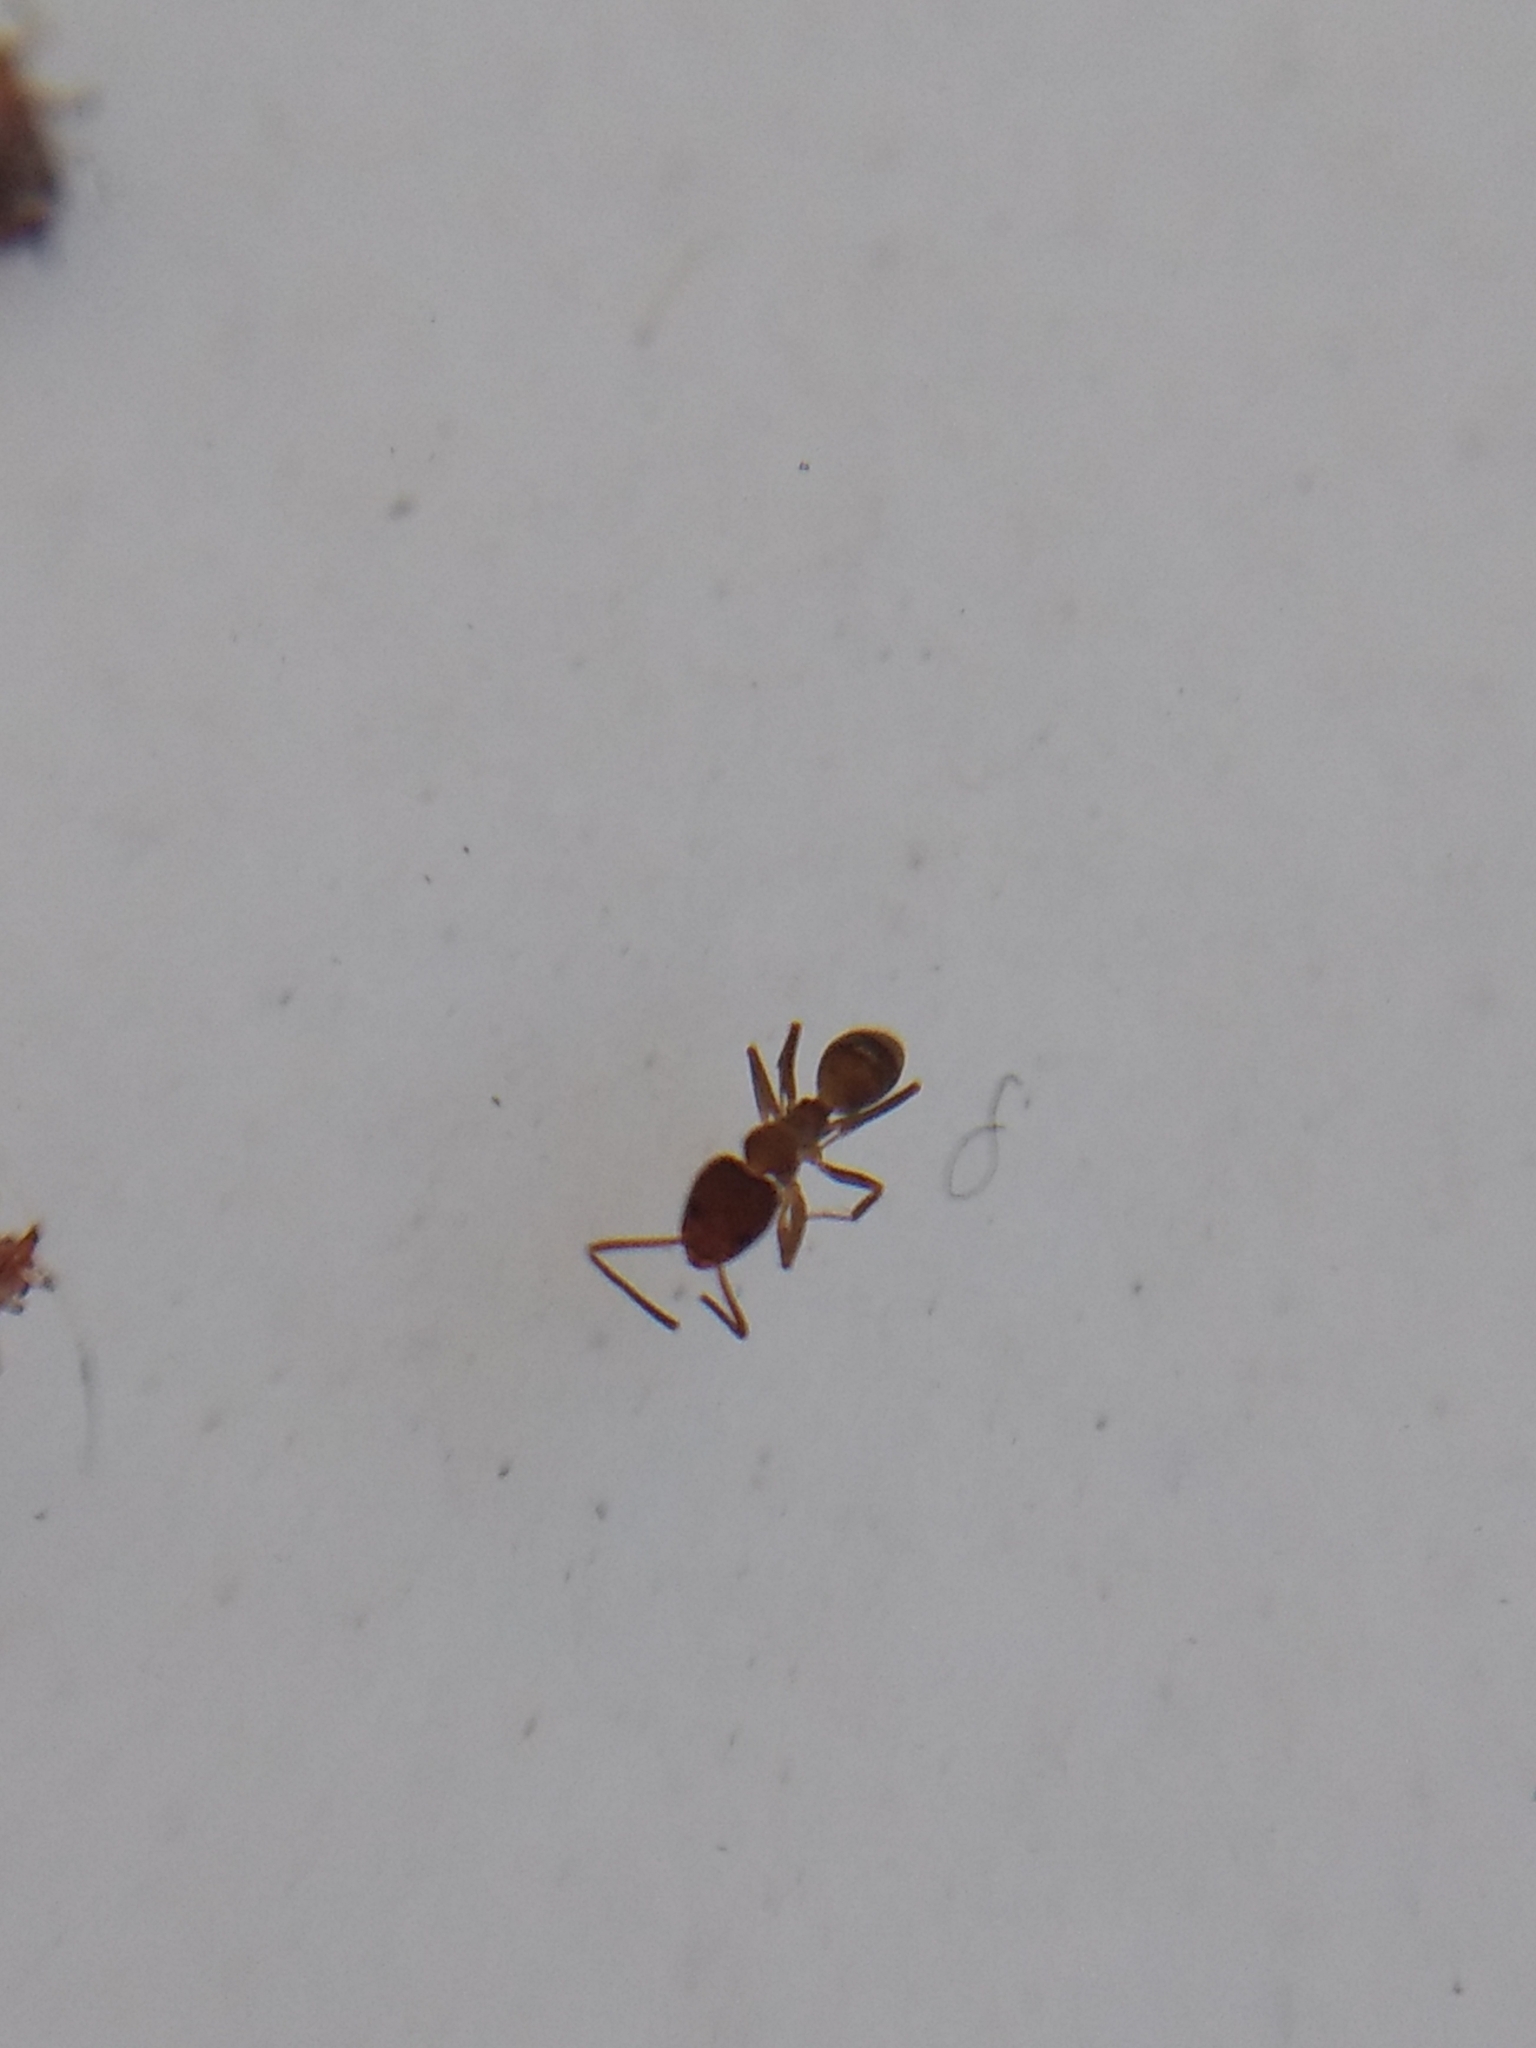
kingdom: Animalia
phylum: Arthropoda
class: Insecta
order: Hymenoptera
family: Formicidae
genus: Linepithema
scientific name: Linepithema humile
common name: Argentine ant
